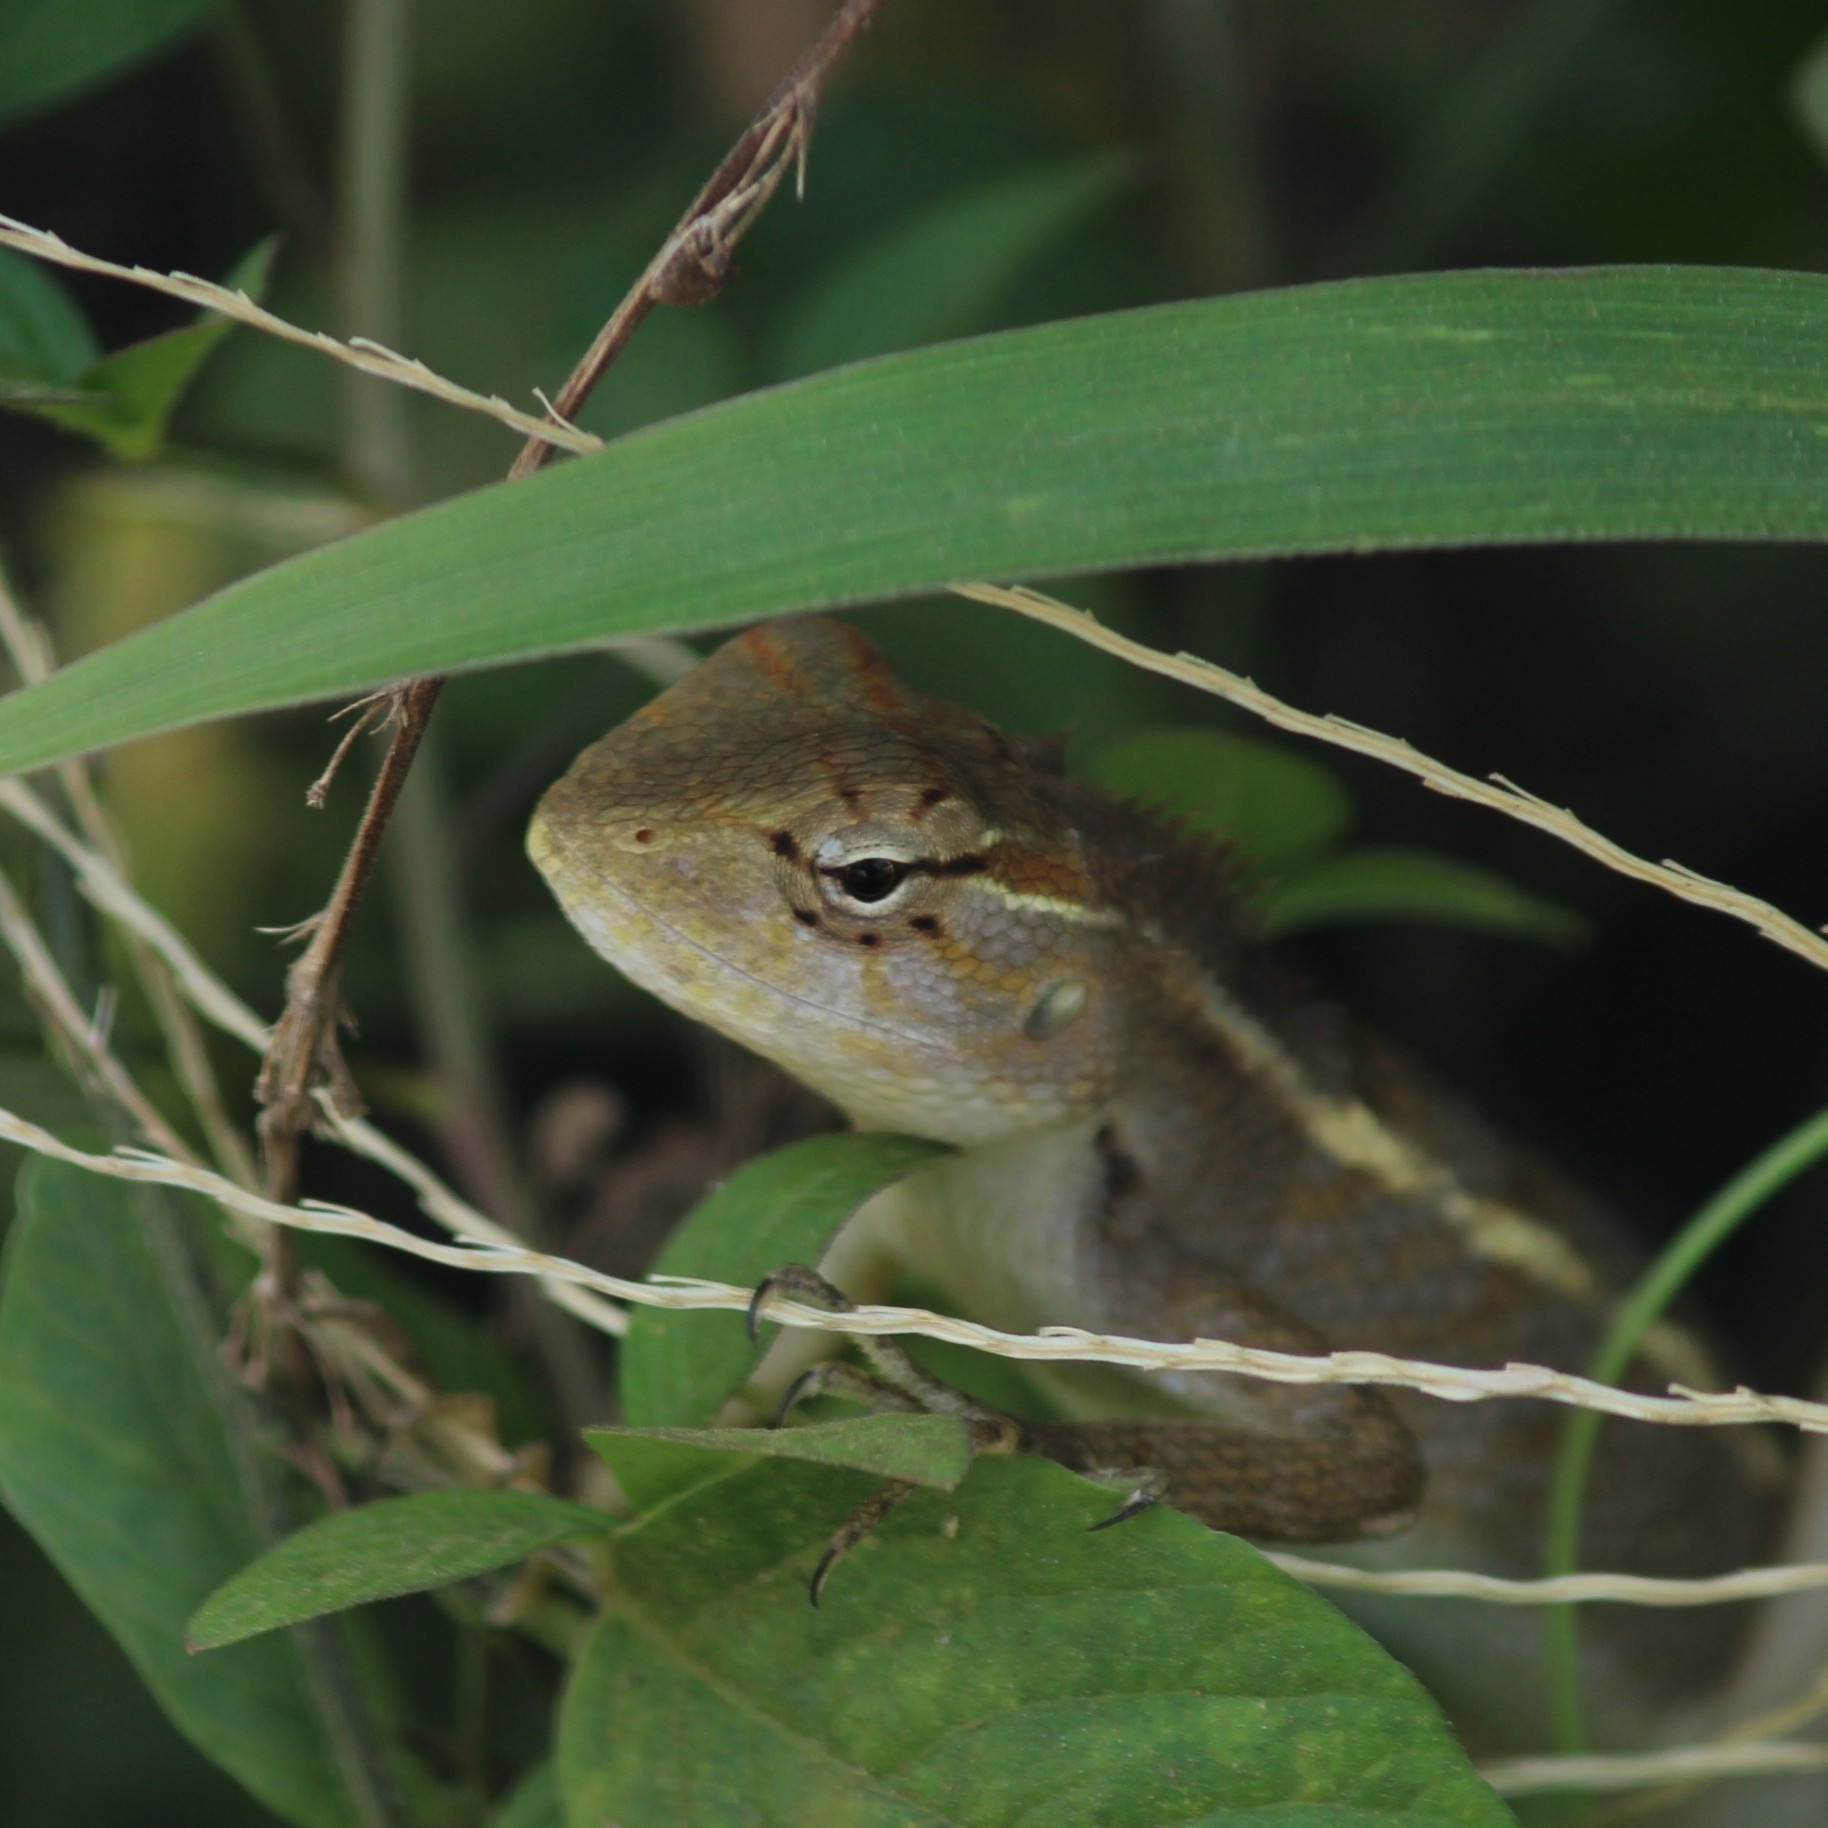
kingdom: Animalia
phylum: Chordata
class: Squamata
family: Agamidae
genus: Calotes
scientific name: Calotes versicolor
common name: Oriental garden lizard
